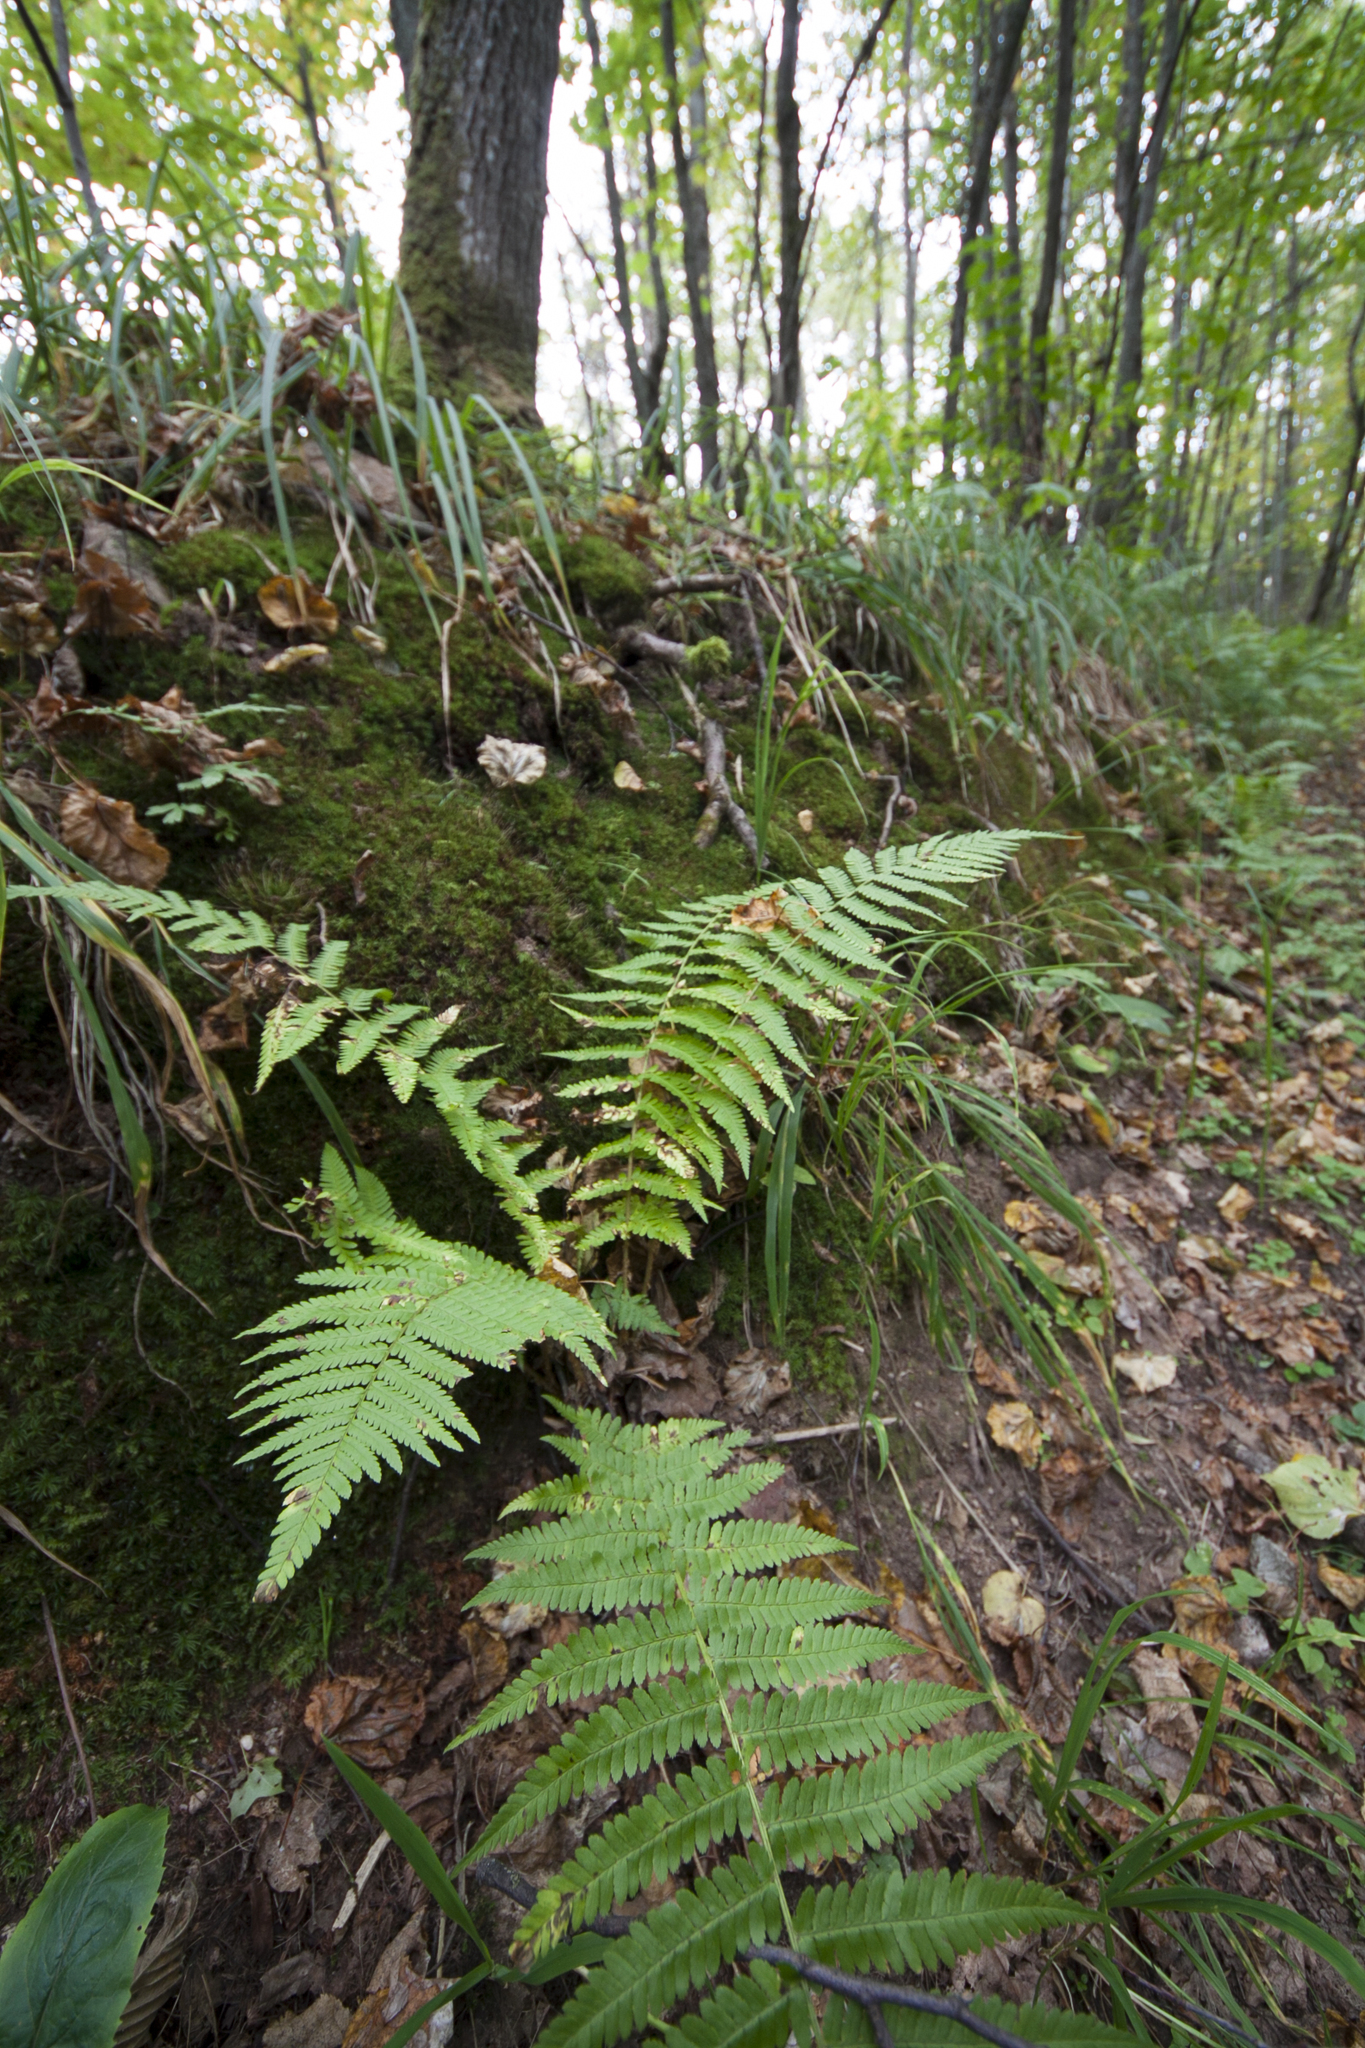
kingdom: Plantae
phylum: Tracheophyta
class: Polypodiopsida
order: Polypodiales
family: Dryopteridaceae
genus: Dryopteris
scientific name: Dryopteris filix-mas
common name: Male fern
